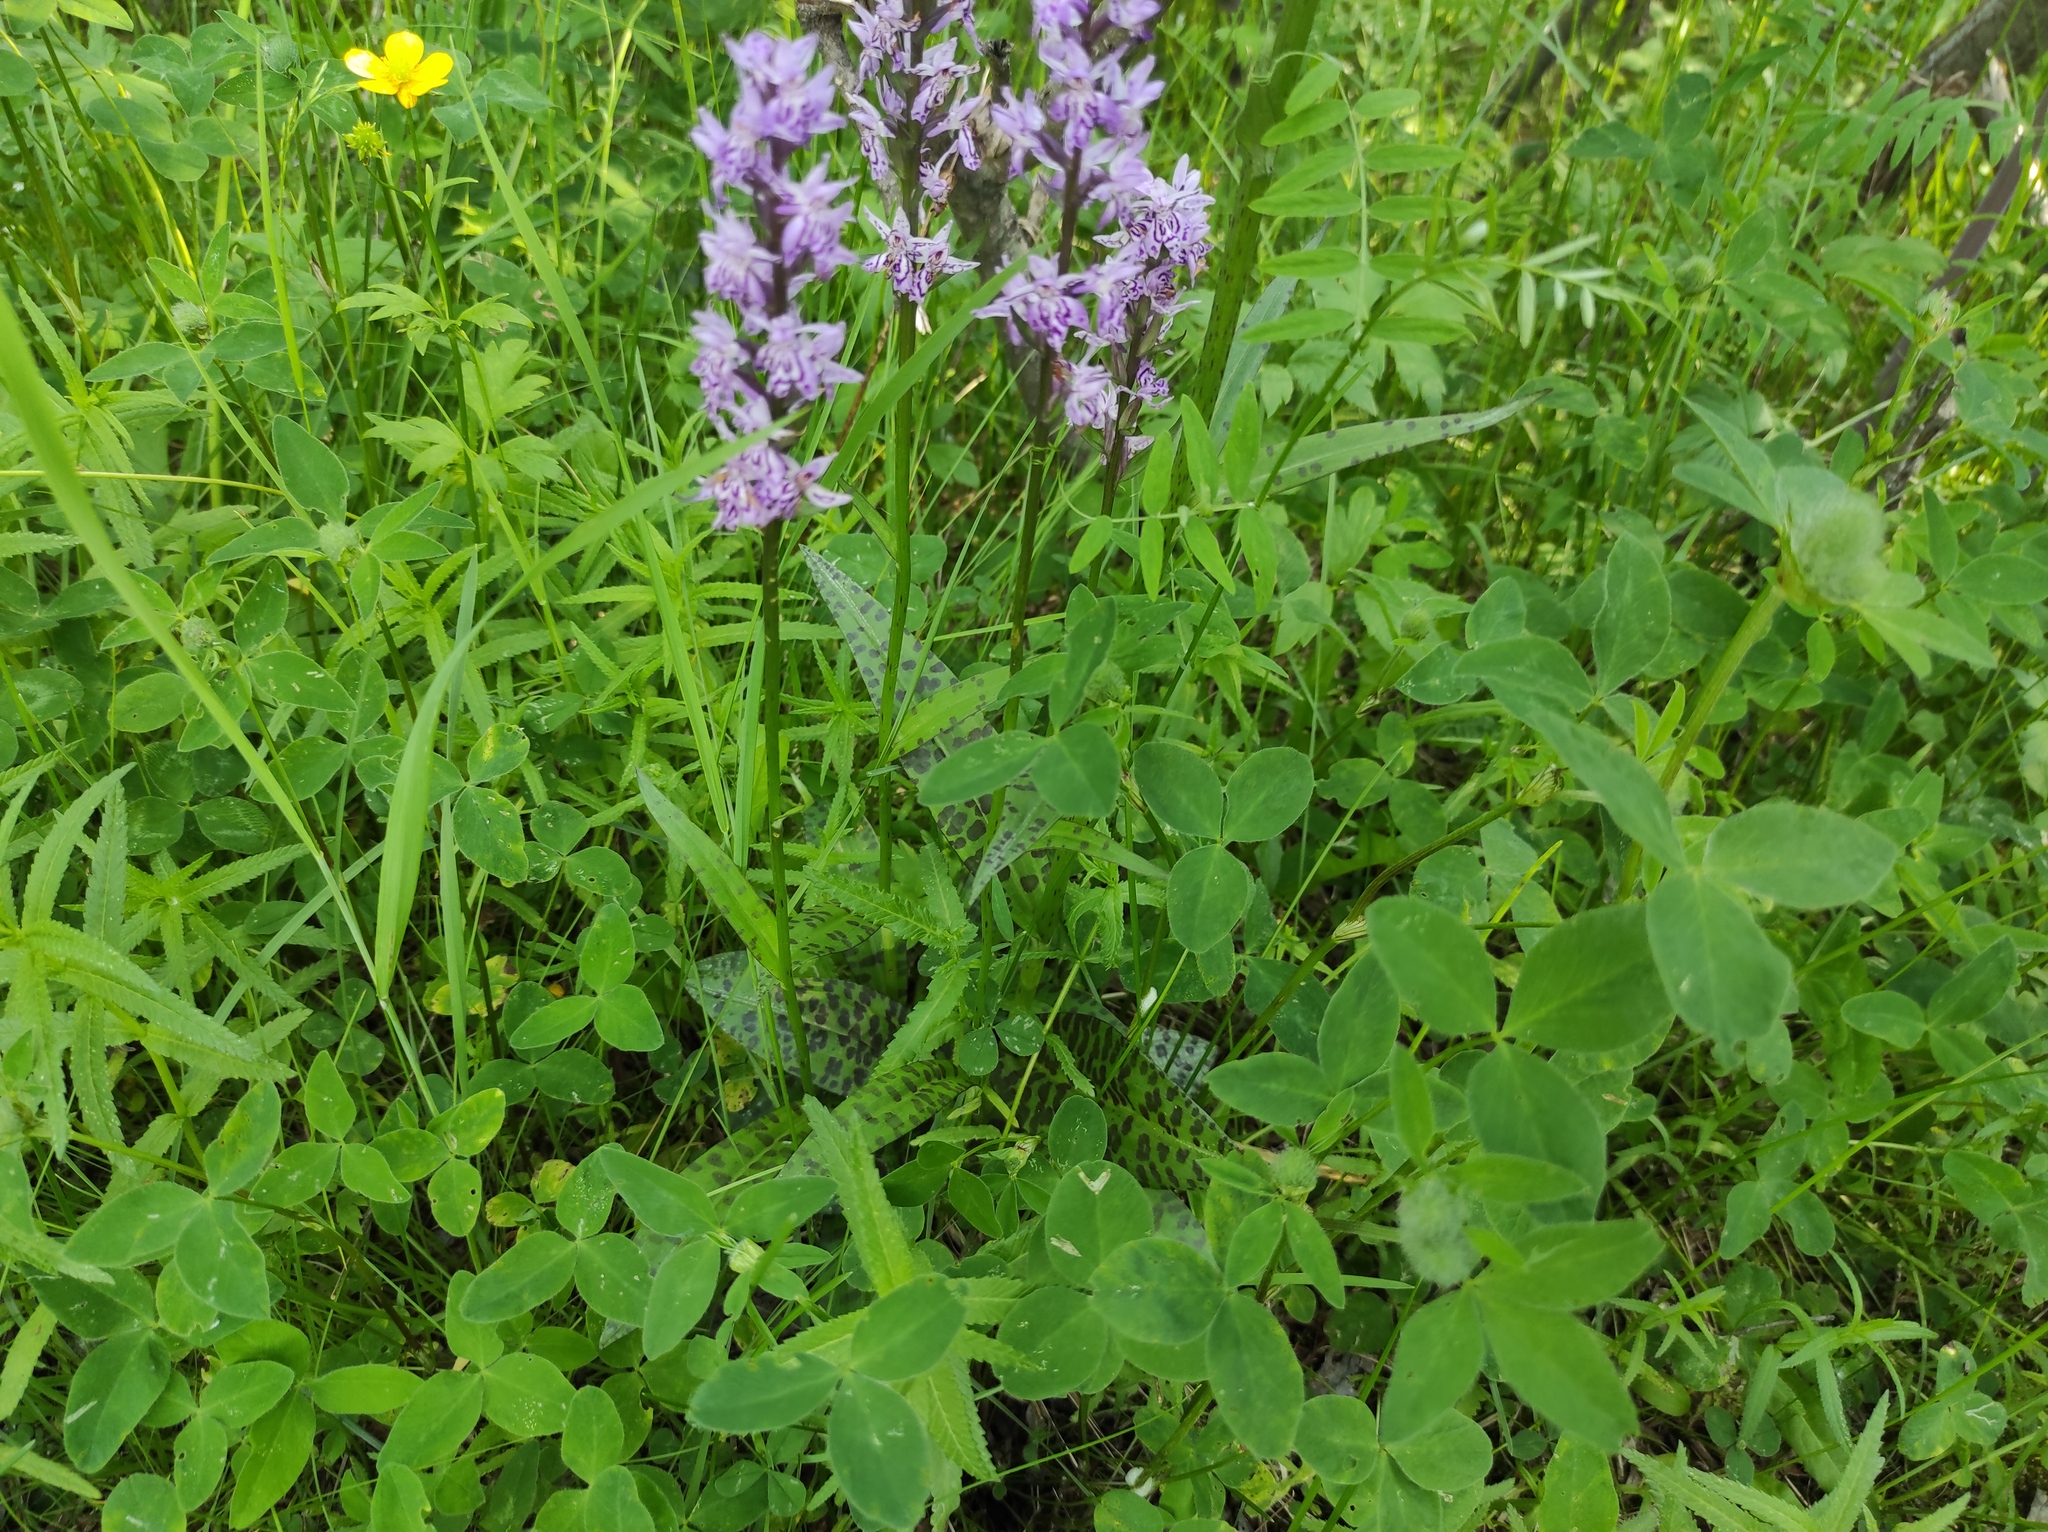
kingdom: Plantae
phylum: Tracheophyta
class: Magnoliopsida
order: Fabales
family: Fabaceae
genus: Trifolium
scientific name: Trifolium pratense
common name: Red clover
